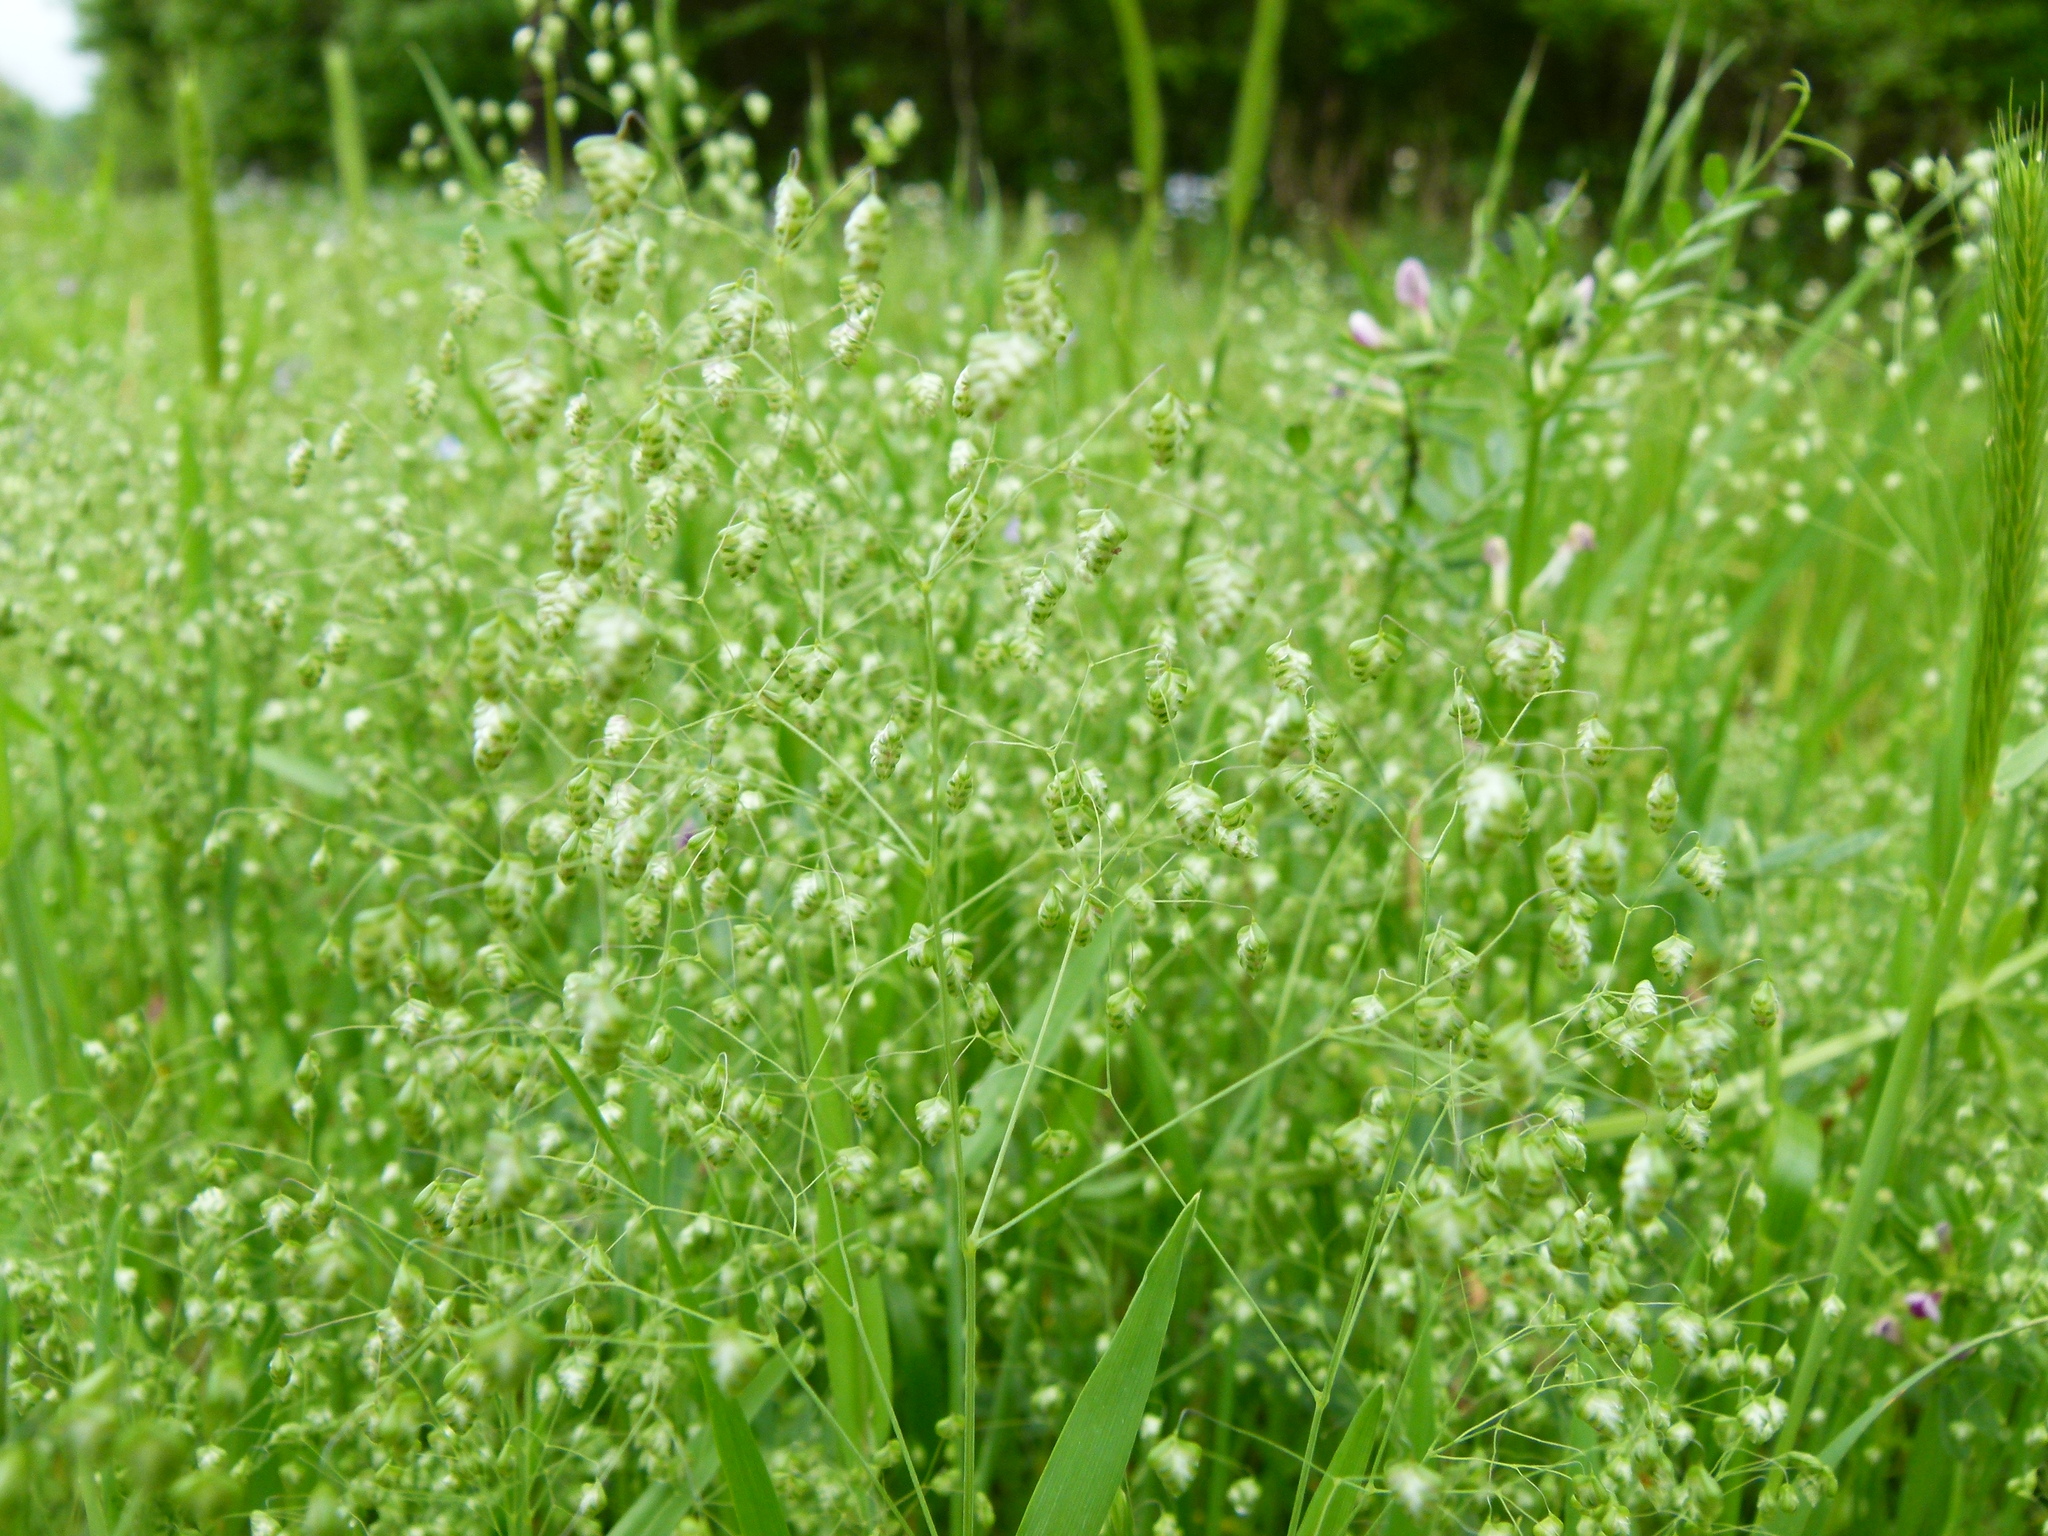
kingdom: Plantae
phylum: Tracheophyta
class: Liliopsida
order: Poales
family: Poaceae
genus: Briza
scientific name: Briza minor
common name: Lesser quaking-grass
